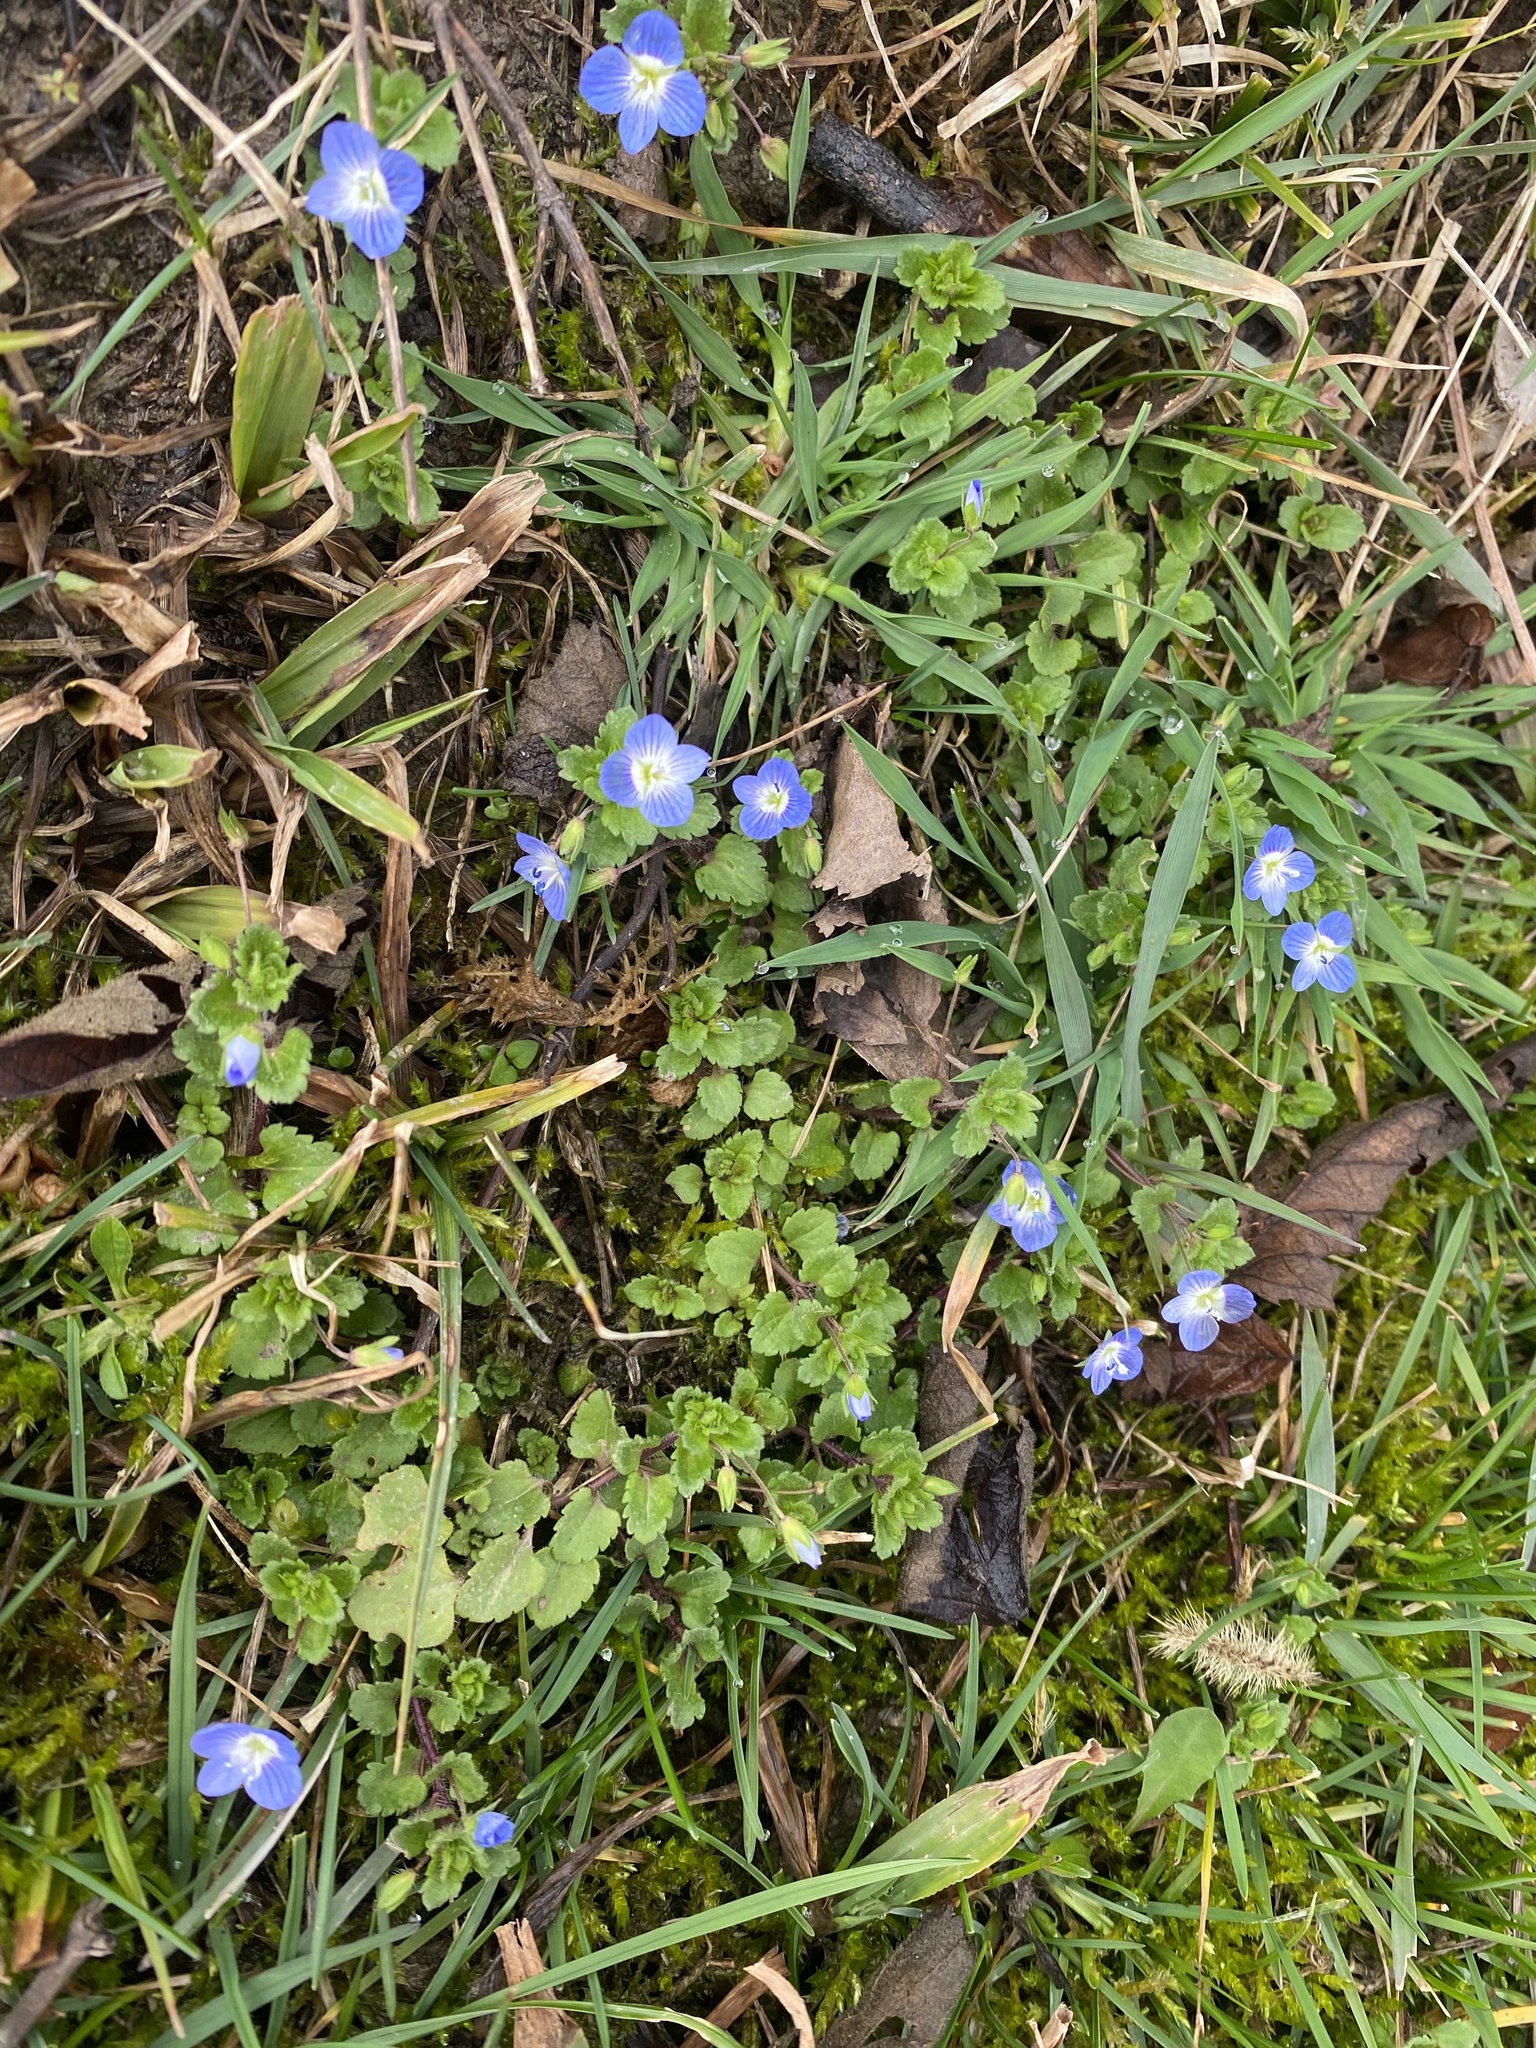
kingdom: Plantae
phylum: Tracheophyta
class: Magnoliopsida
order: Lamiales
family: Plantaginaceae
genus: Veronica
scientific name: Veronica persica
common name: Common field-speedwell
